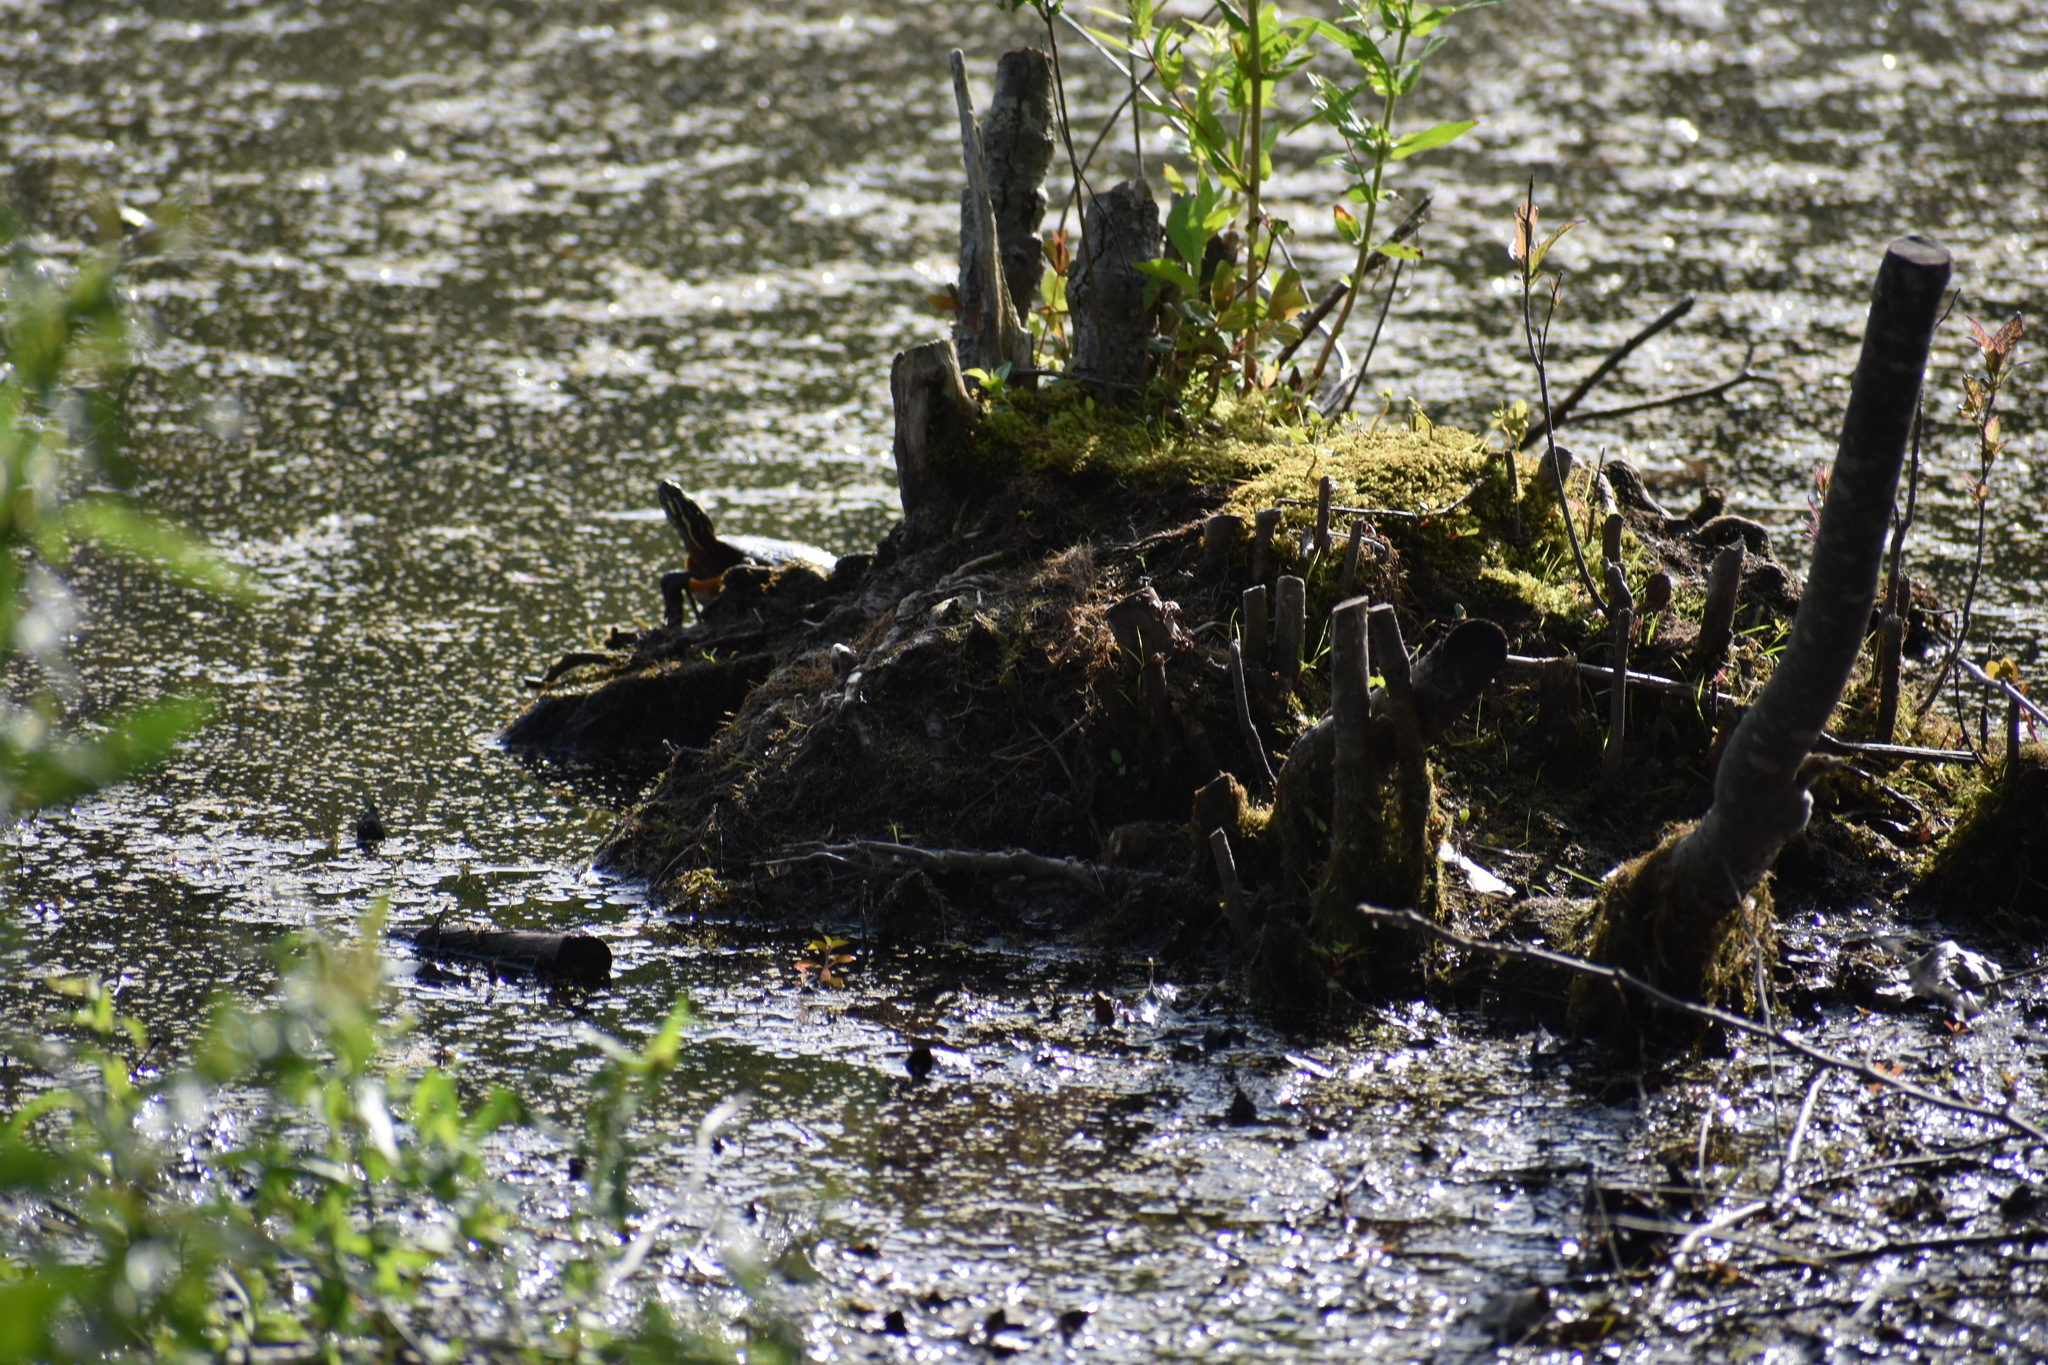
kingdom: Animalia
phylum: Chordata
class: Testudines
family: Emydidae
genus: Chrysemys
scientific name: Chrysemys picta
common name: Painted turtle
